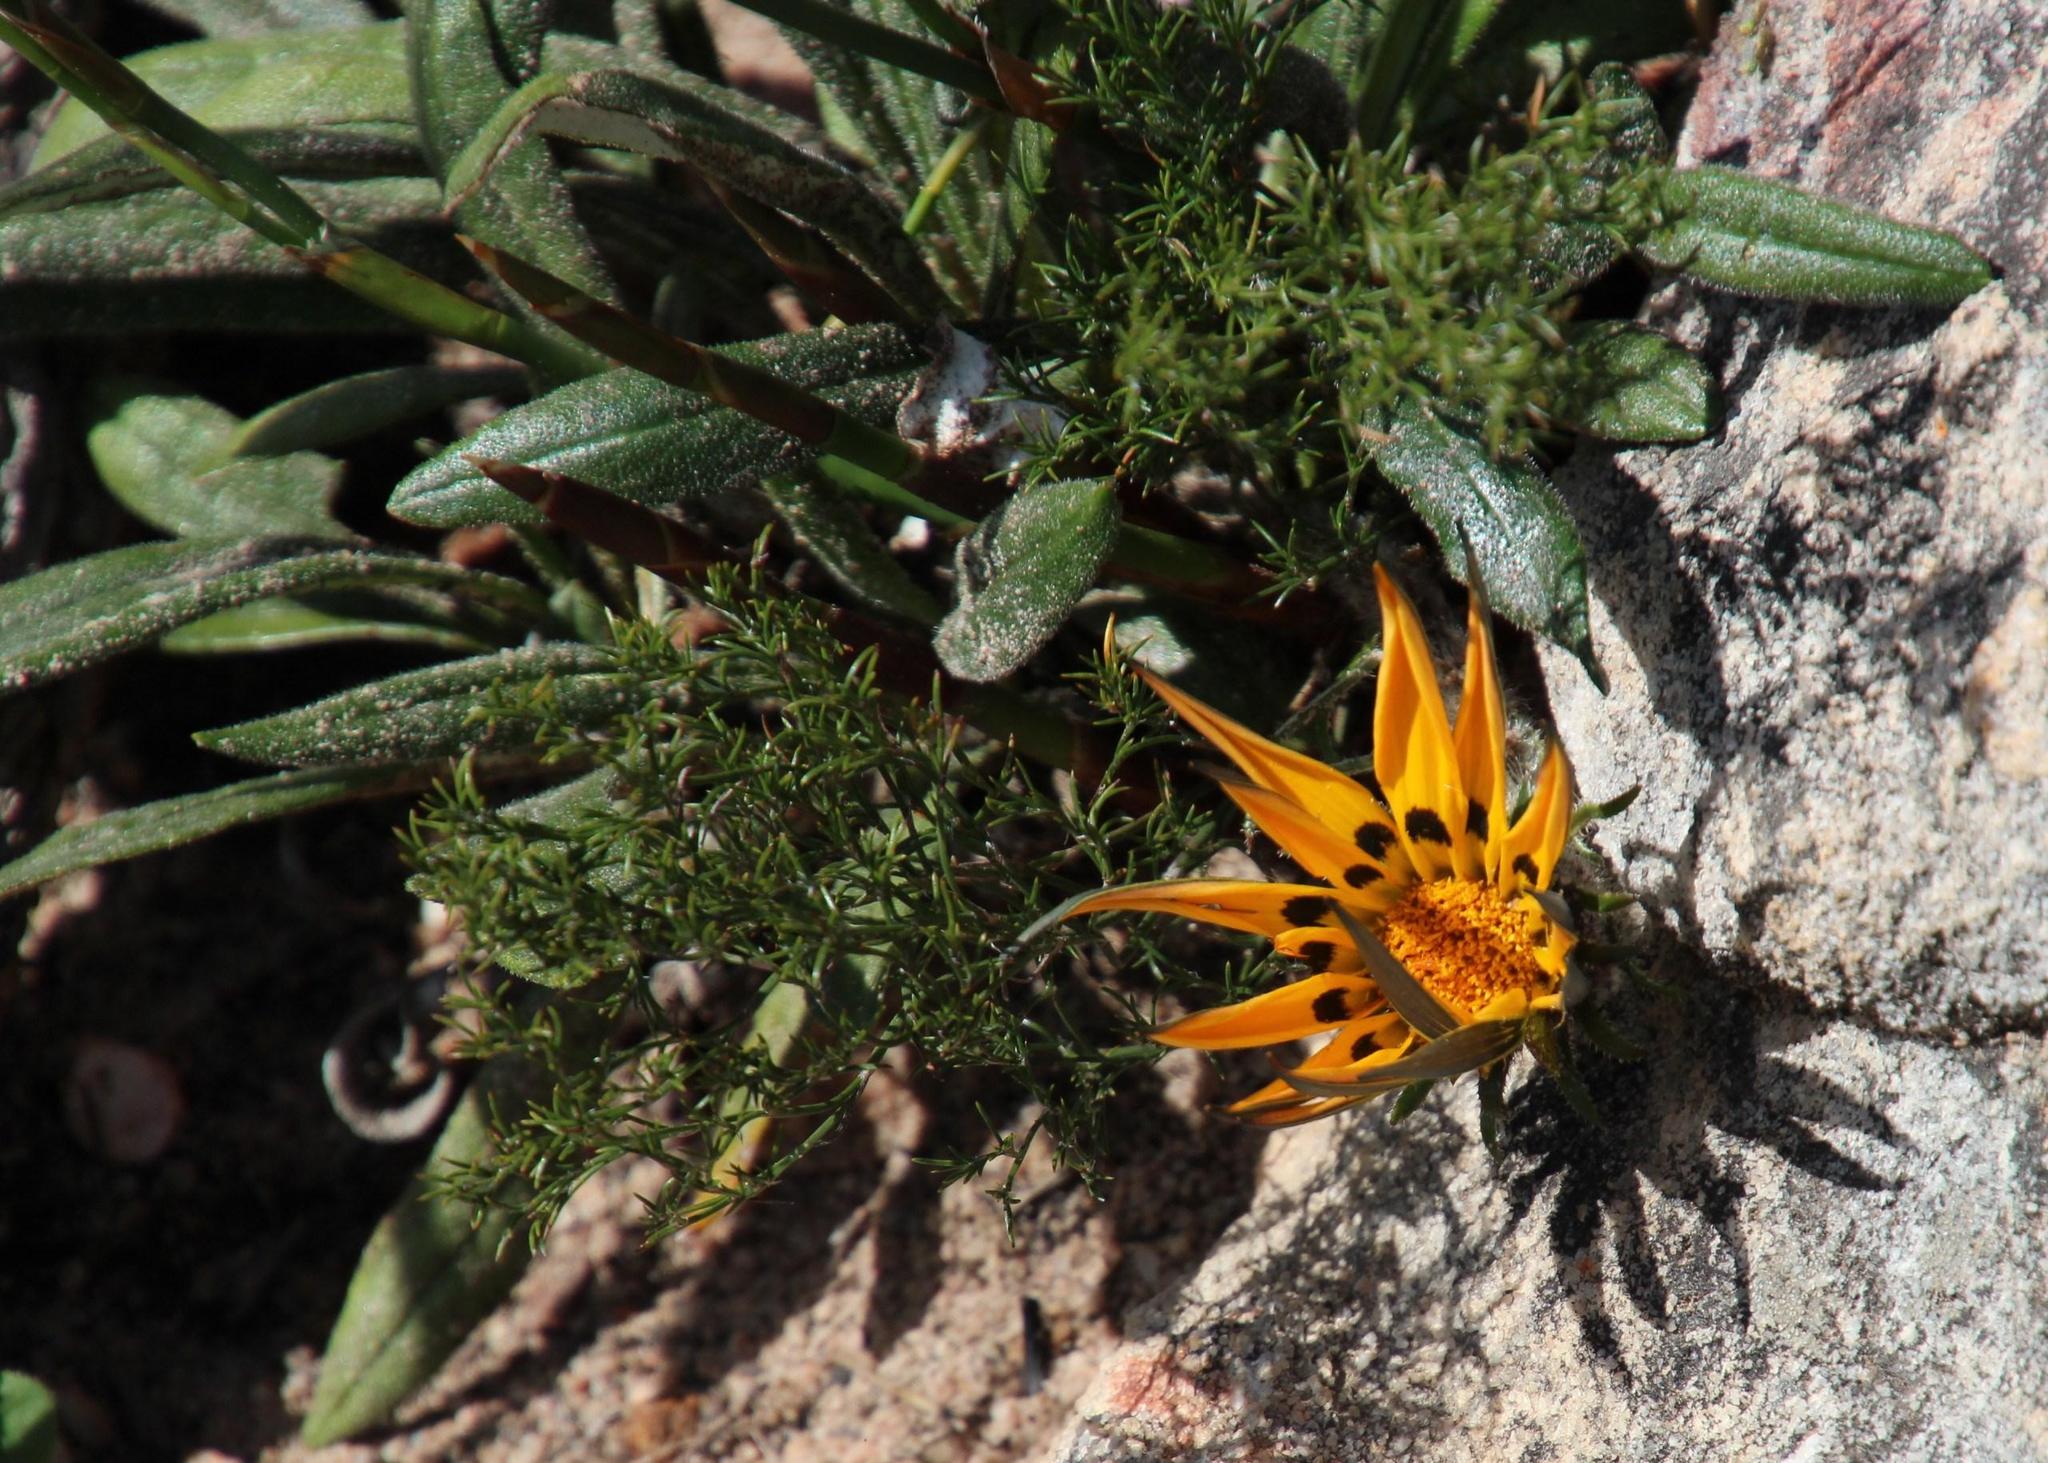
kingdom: Plantae
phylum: Tracheophyta
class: Magnoliopsida
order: Asterales
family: Asteraceae
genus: Gazania
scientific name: Gazania serrata
